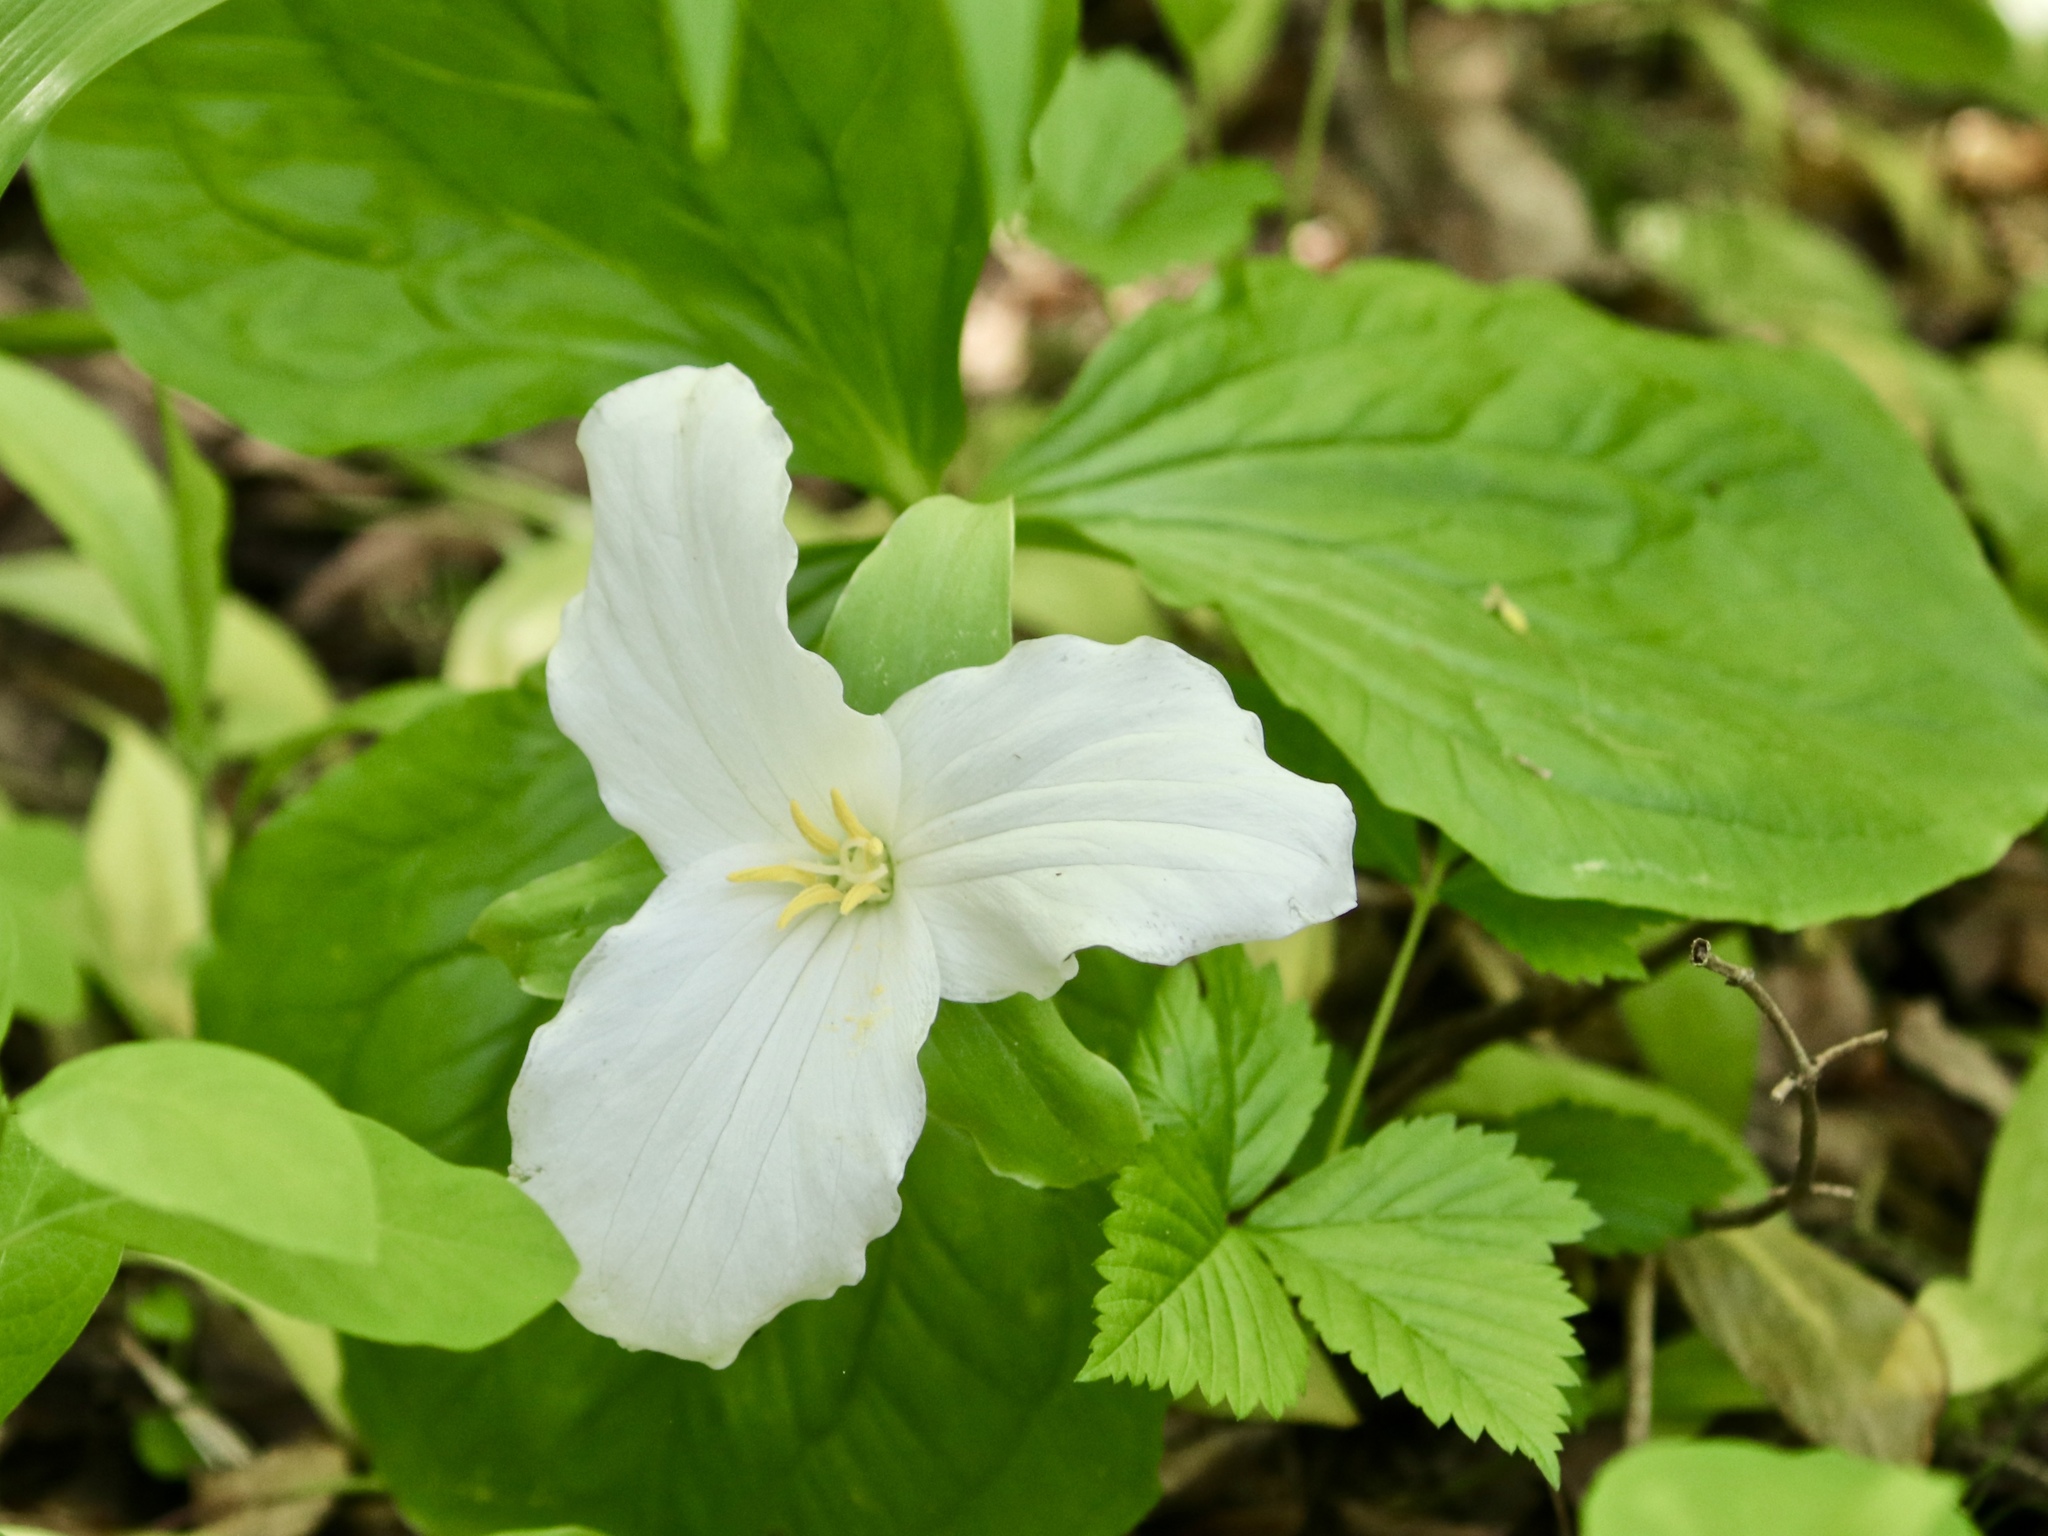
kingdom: Plantae
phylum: Tracheophyta
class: Liliopsida
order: Liliales
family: Melanthiaceae
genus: Trillium
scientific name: Trillium grandiflorum
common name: Great white trillium
